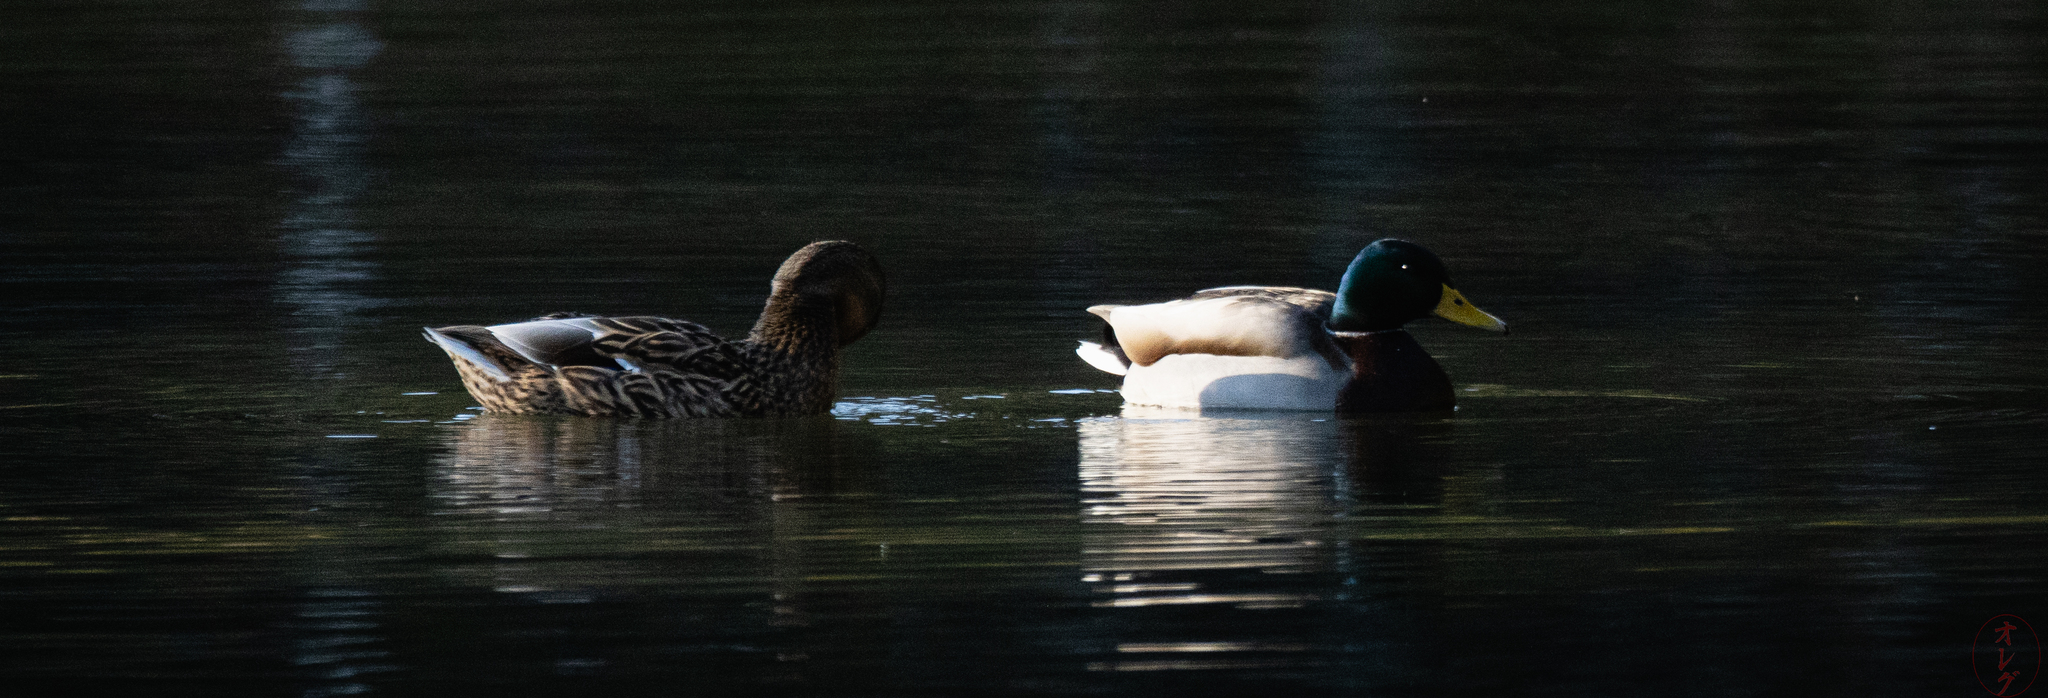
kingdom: Animalia
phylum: Chordata
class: Aves
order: Anseriformes
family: Anatidae
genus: Anas
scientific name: Anas platyrhynchos
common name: Mallard
